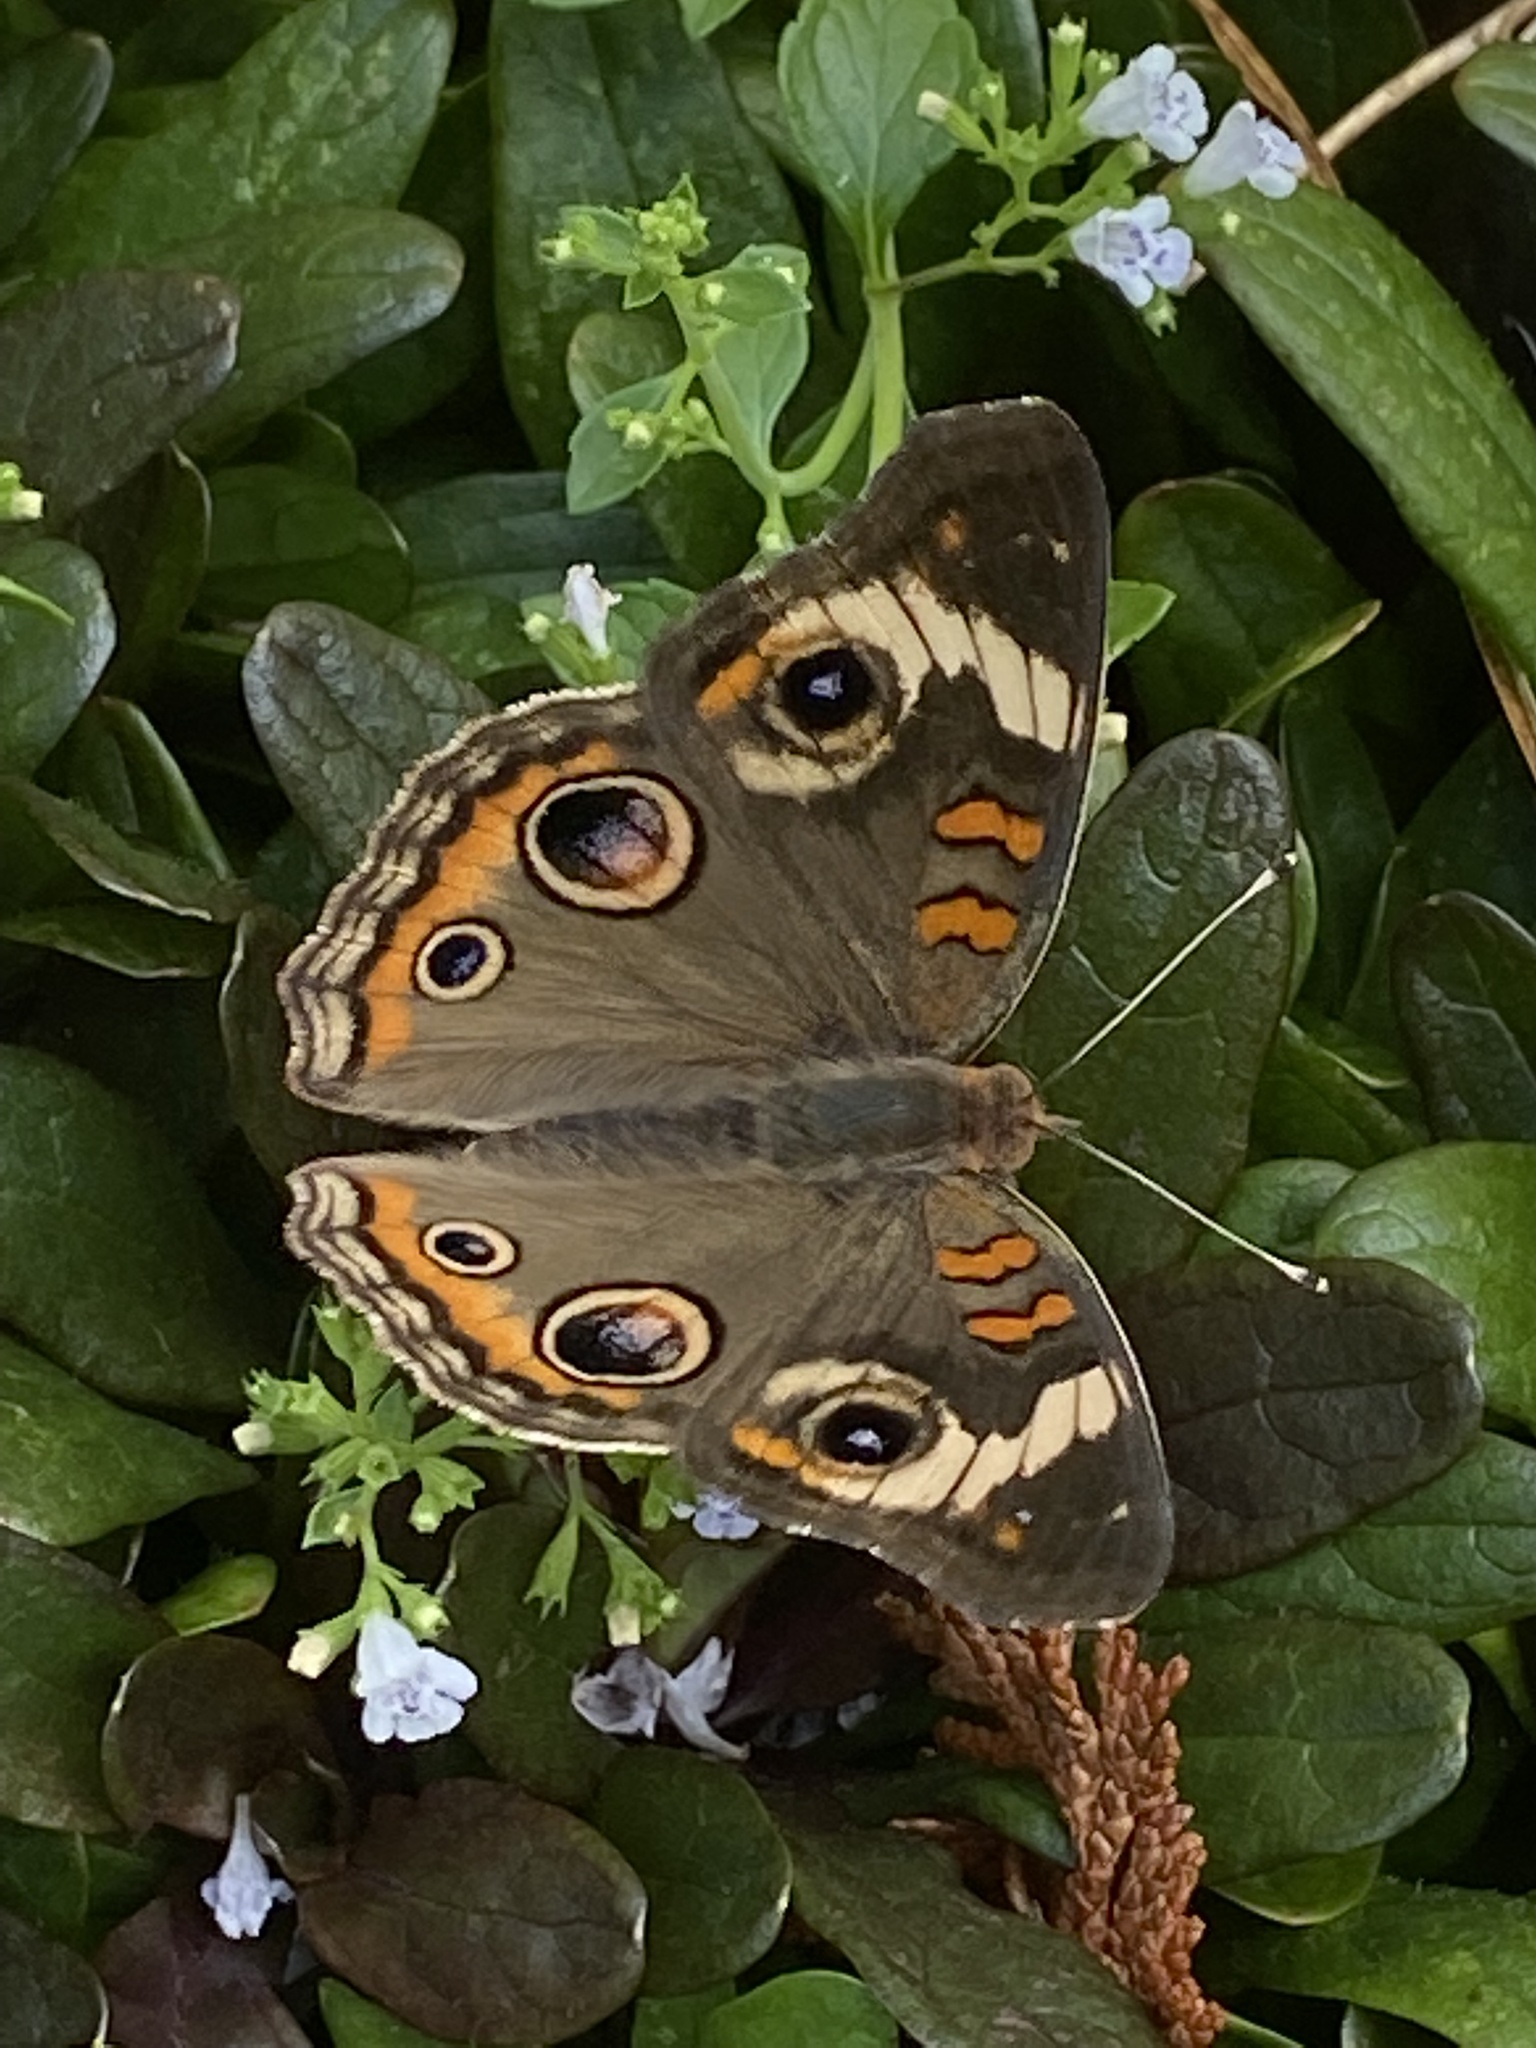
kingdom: Animalia
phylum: Arthropoda
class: Insecta
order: Lepidoptera
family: Nymphalidae
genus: Junonia
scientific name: Junonia coenia
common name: Common buckeye
